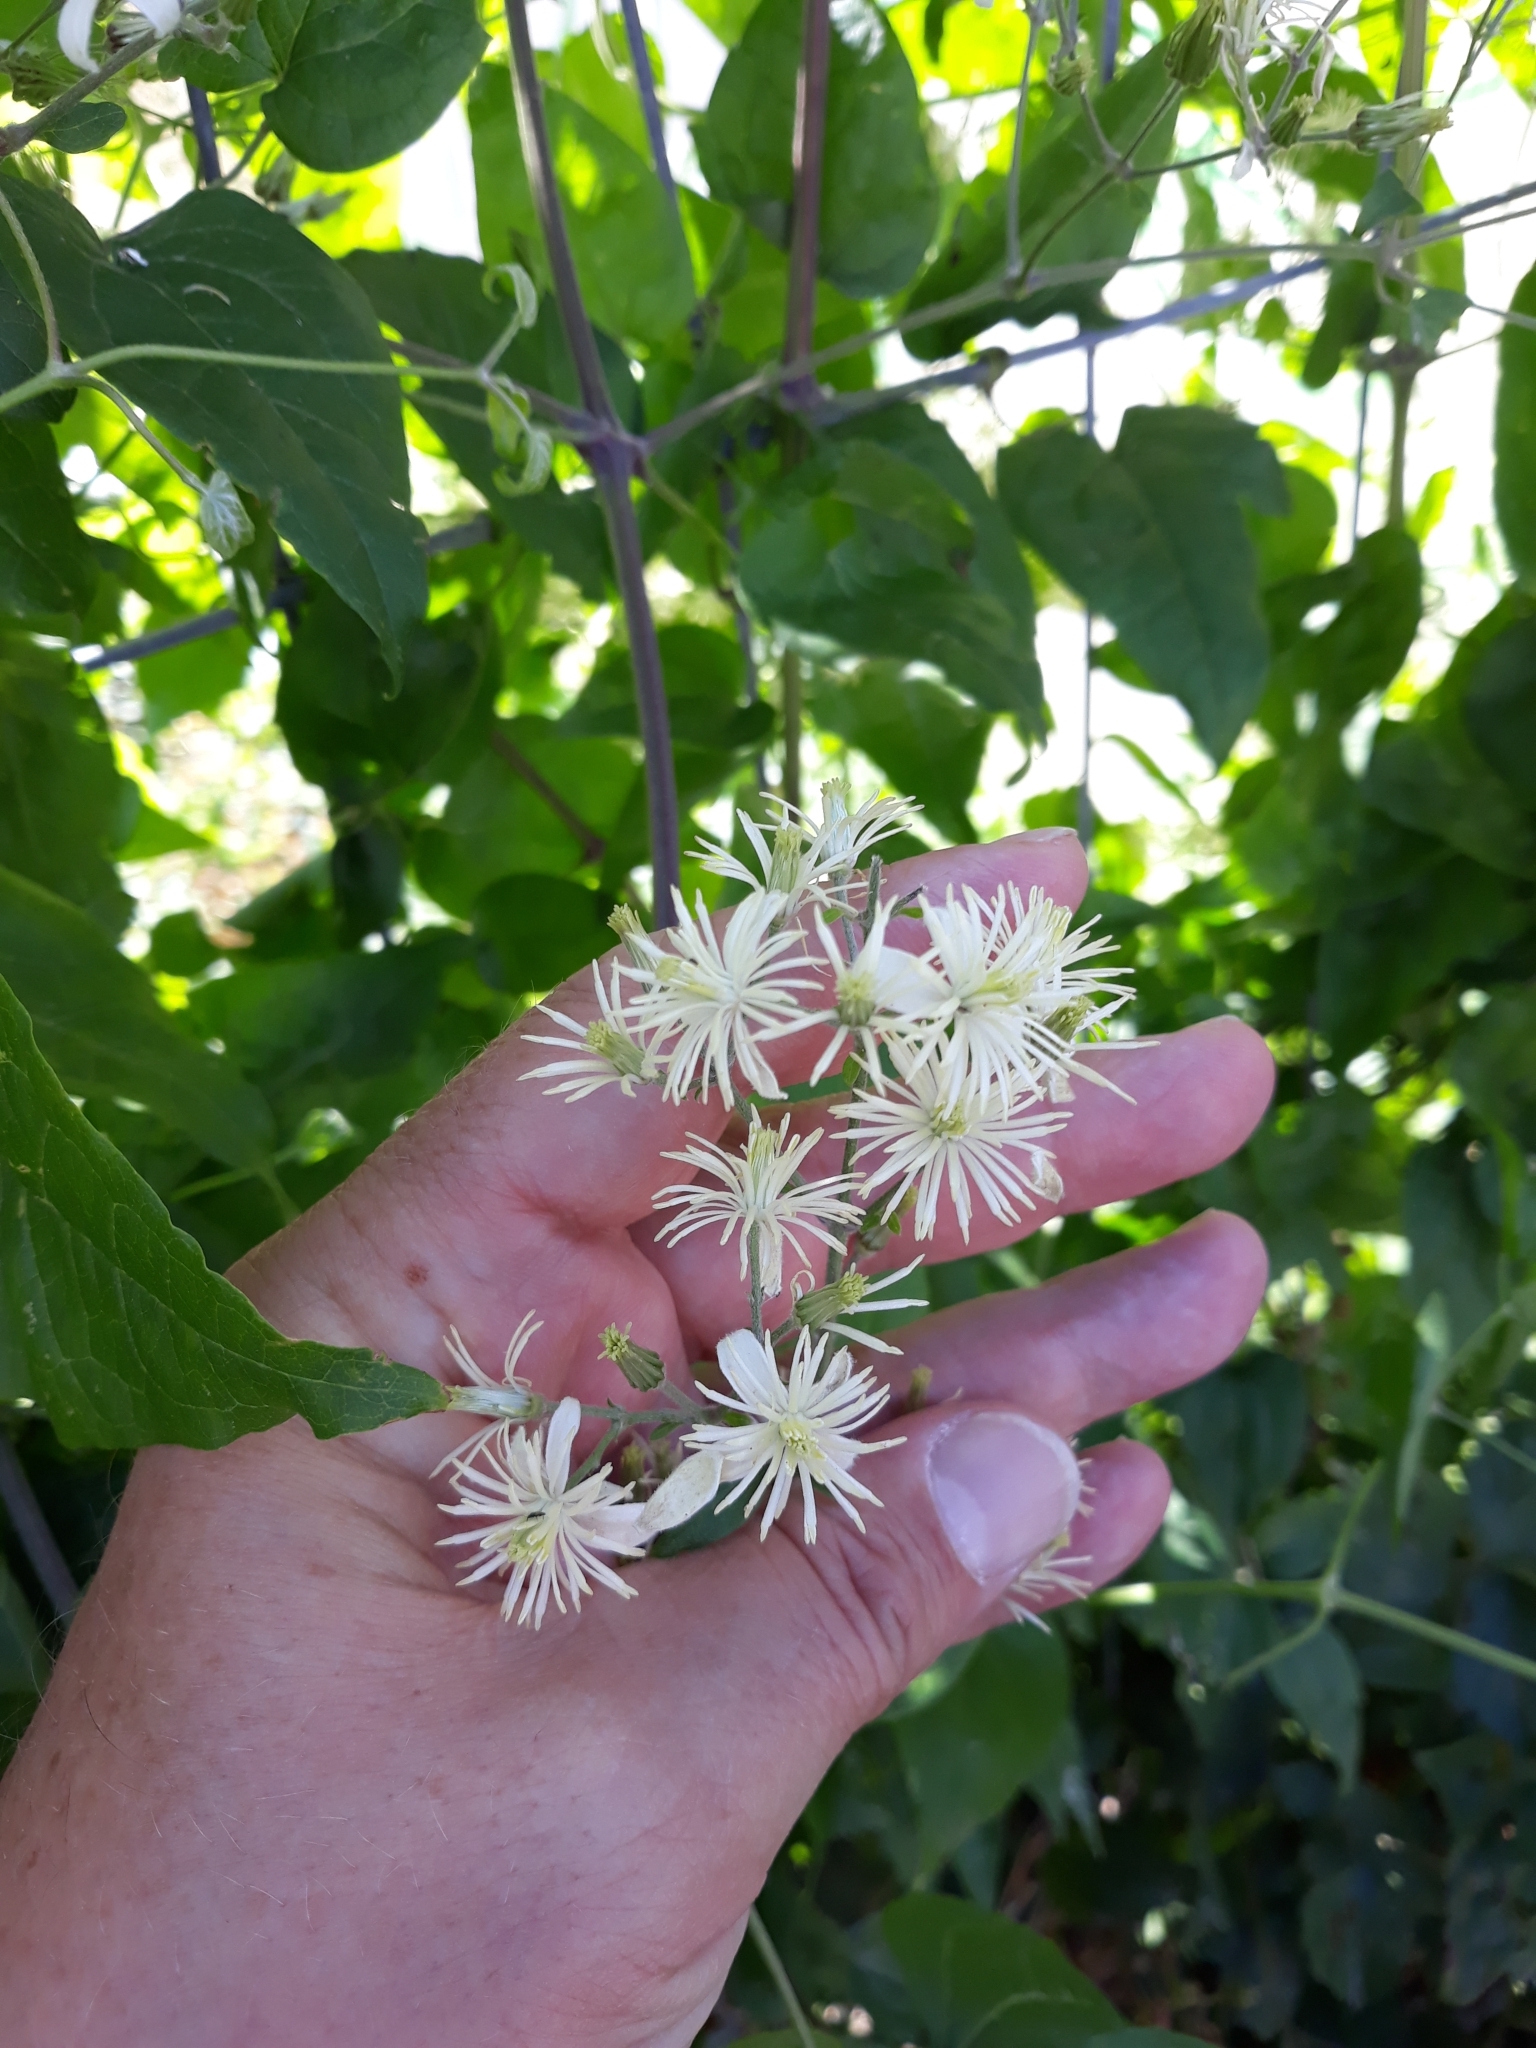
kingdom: Plantae
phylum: Tracheophyta
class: Magnoliopsida
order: Ranunculales
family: Ranunculaceae
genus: Clematis
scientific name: Clematis vitalba
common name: Evergreen clematis
